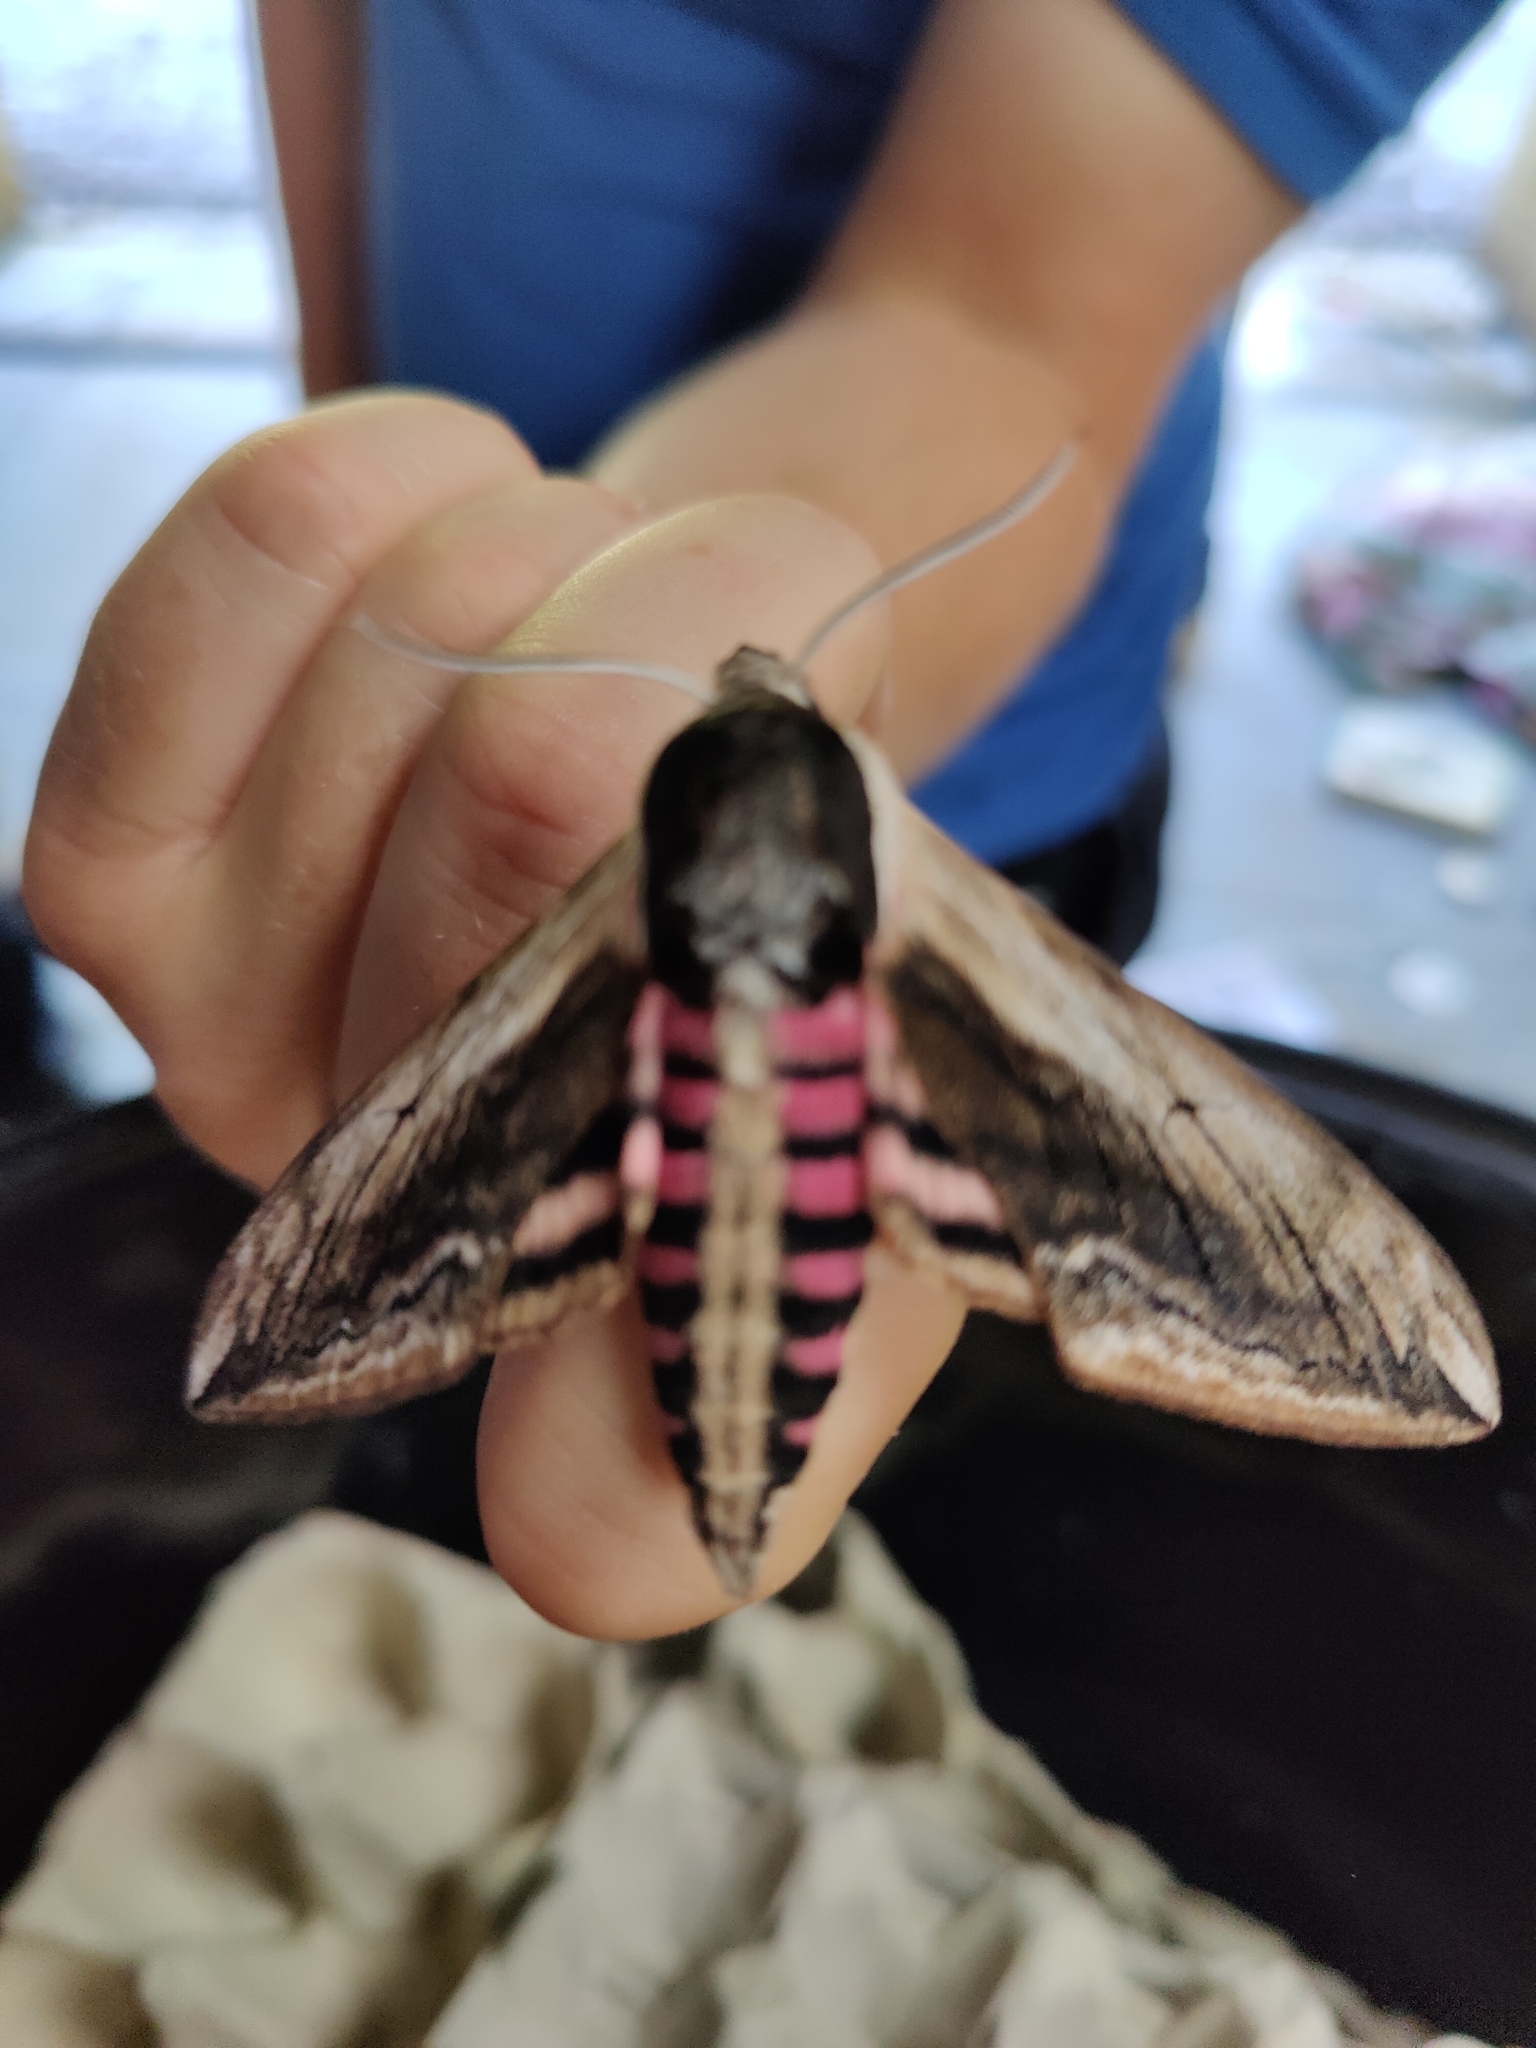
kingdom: Animalia
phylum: Arthropoda
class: Insecta
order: Lepidoptera
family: Sphingidae
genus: Sphinx
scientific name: Sphinx ligustri
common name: Privet hawk-moth
